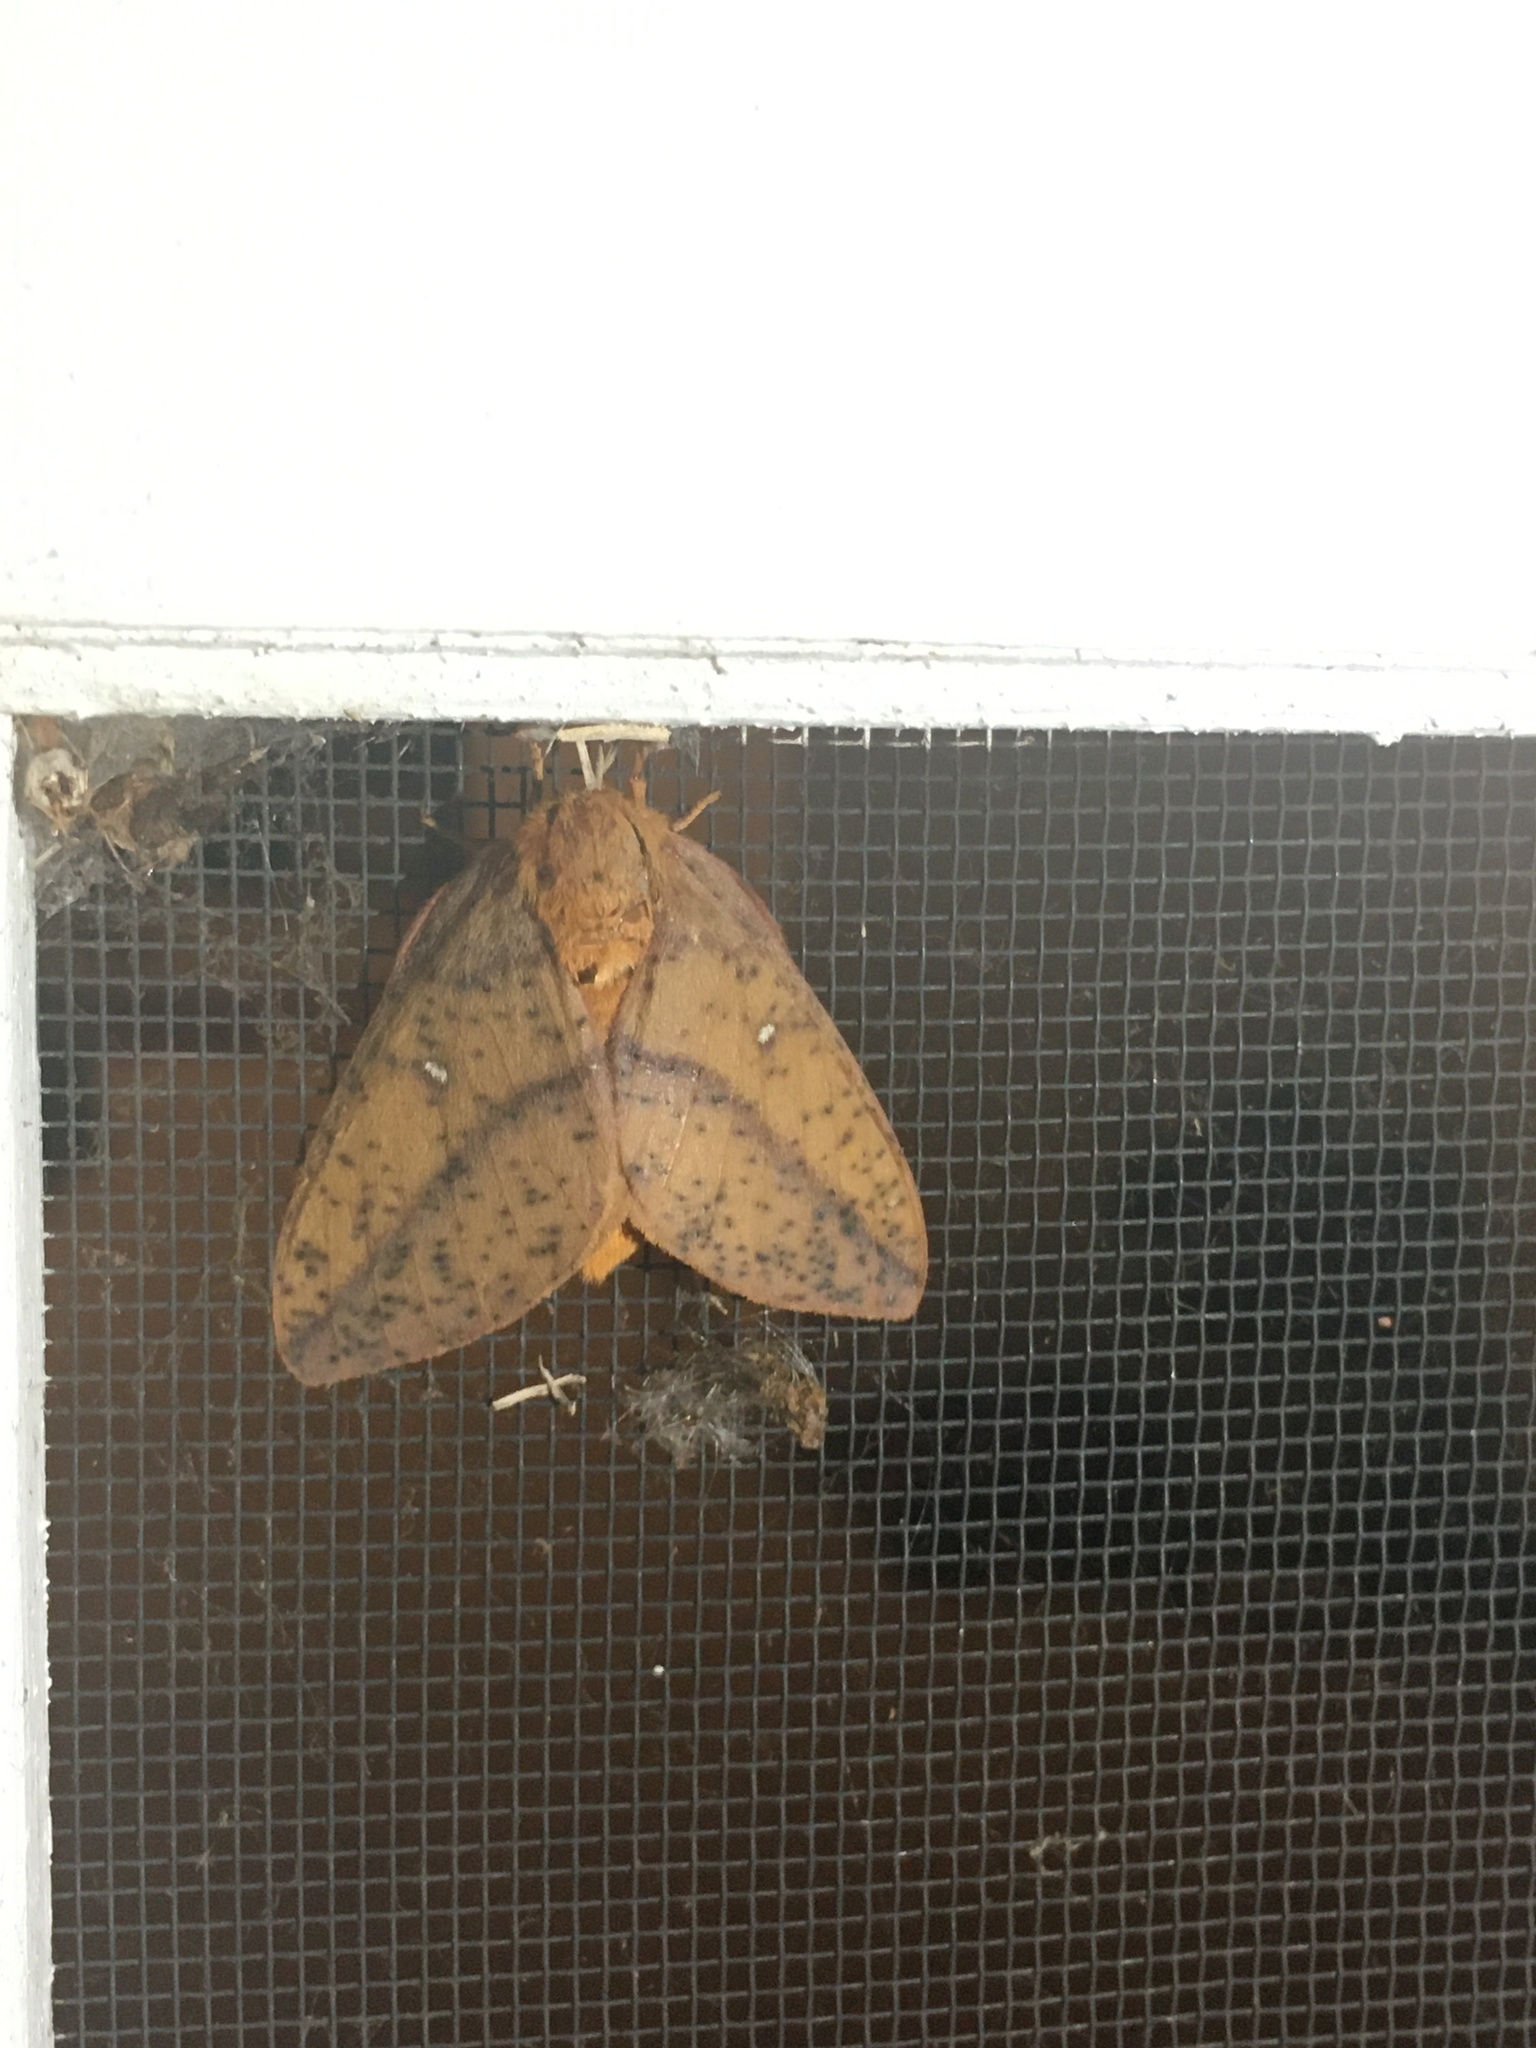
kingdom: Animalia
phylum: Arthropoda
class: Insecta
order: Lepidoptera
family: Saturniidae
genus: Anisota
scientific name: Anisota peigleri
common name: Peigler's oakworm moth
